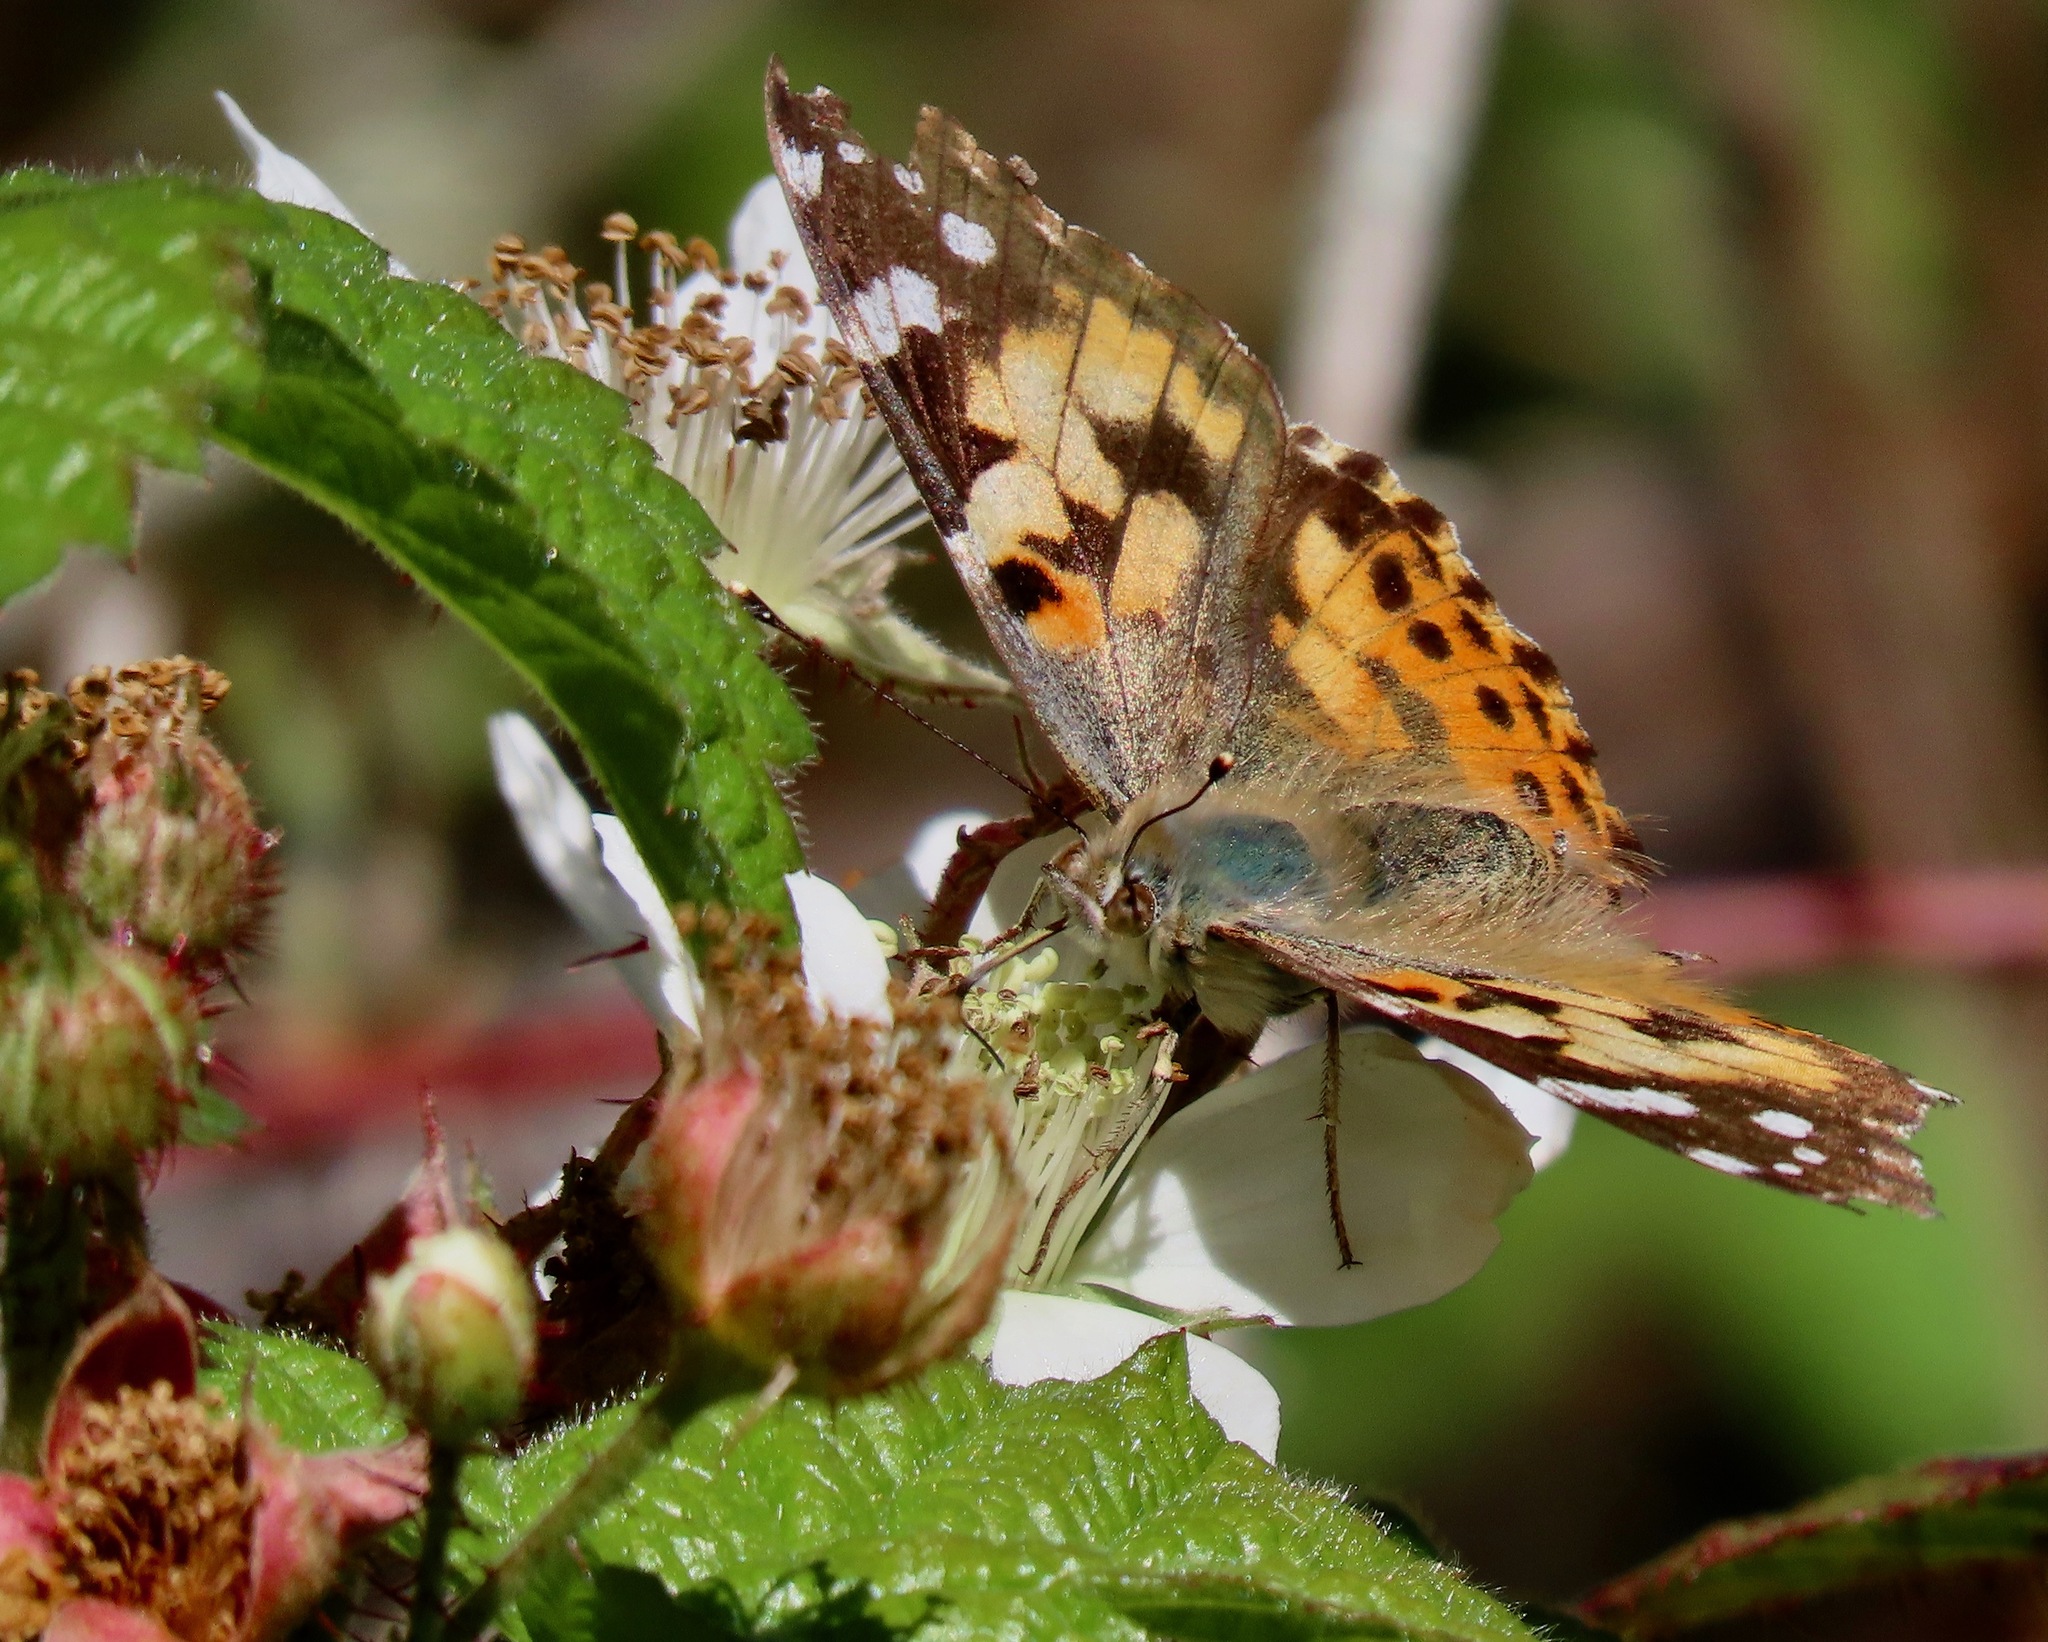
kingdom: Animalia
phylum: Arthropoda
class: Insecta
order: Lepidoptera
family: Nymphalidae
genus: Vanessa
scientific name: Vanessa cardui
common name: Painted lady
